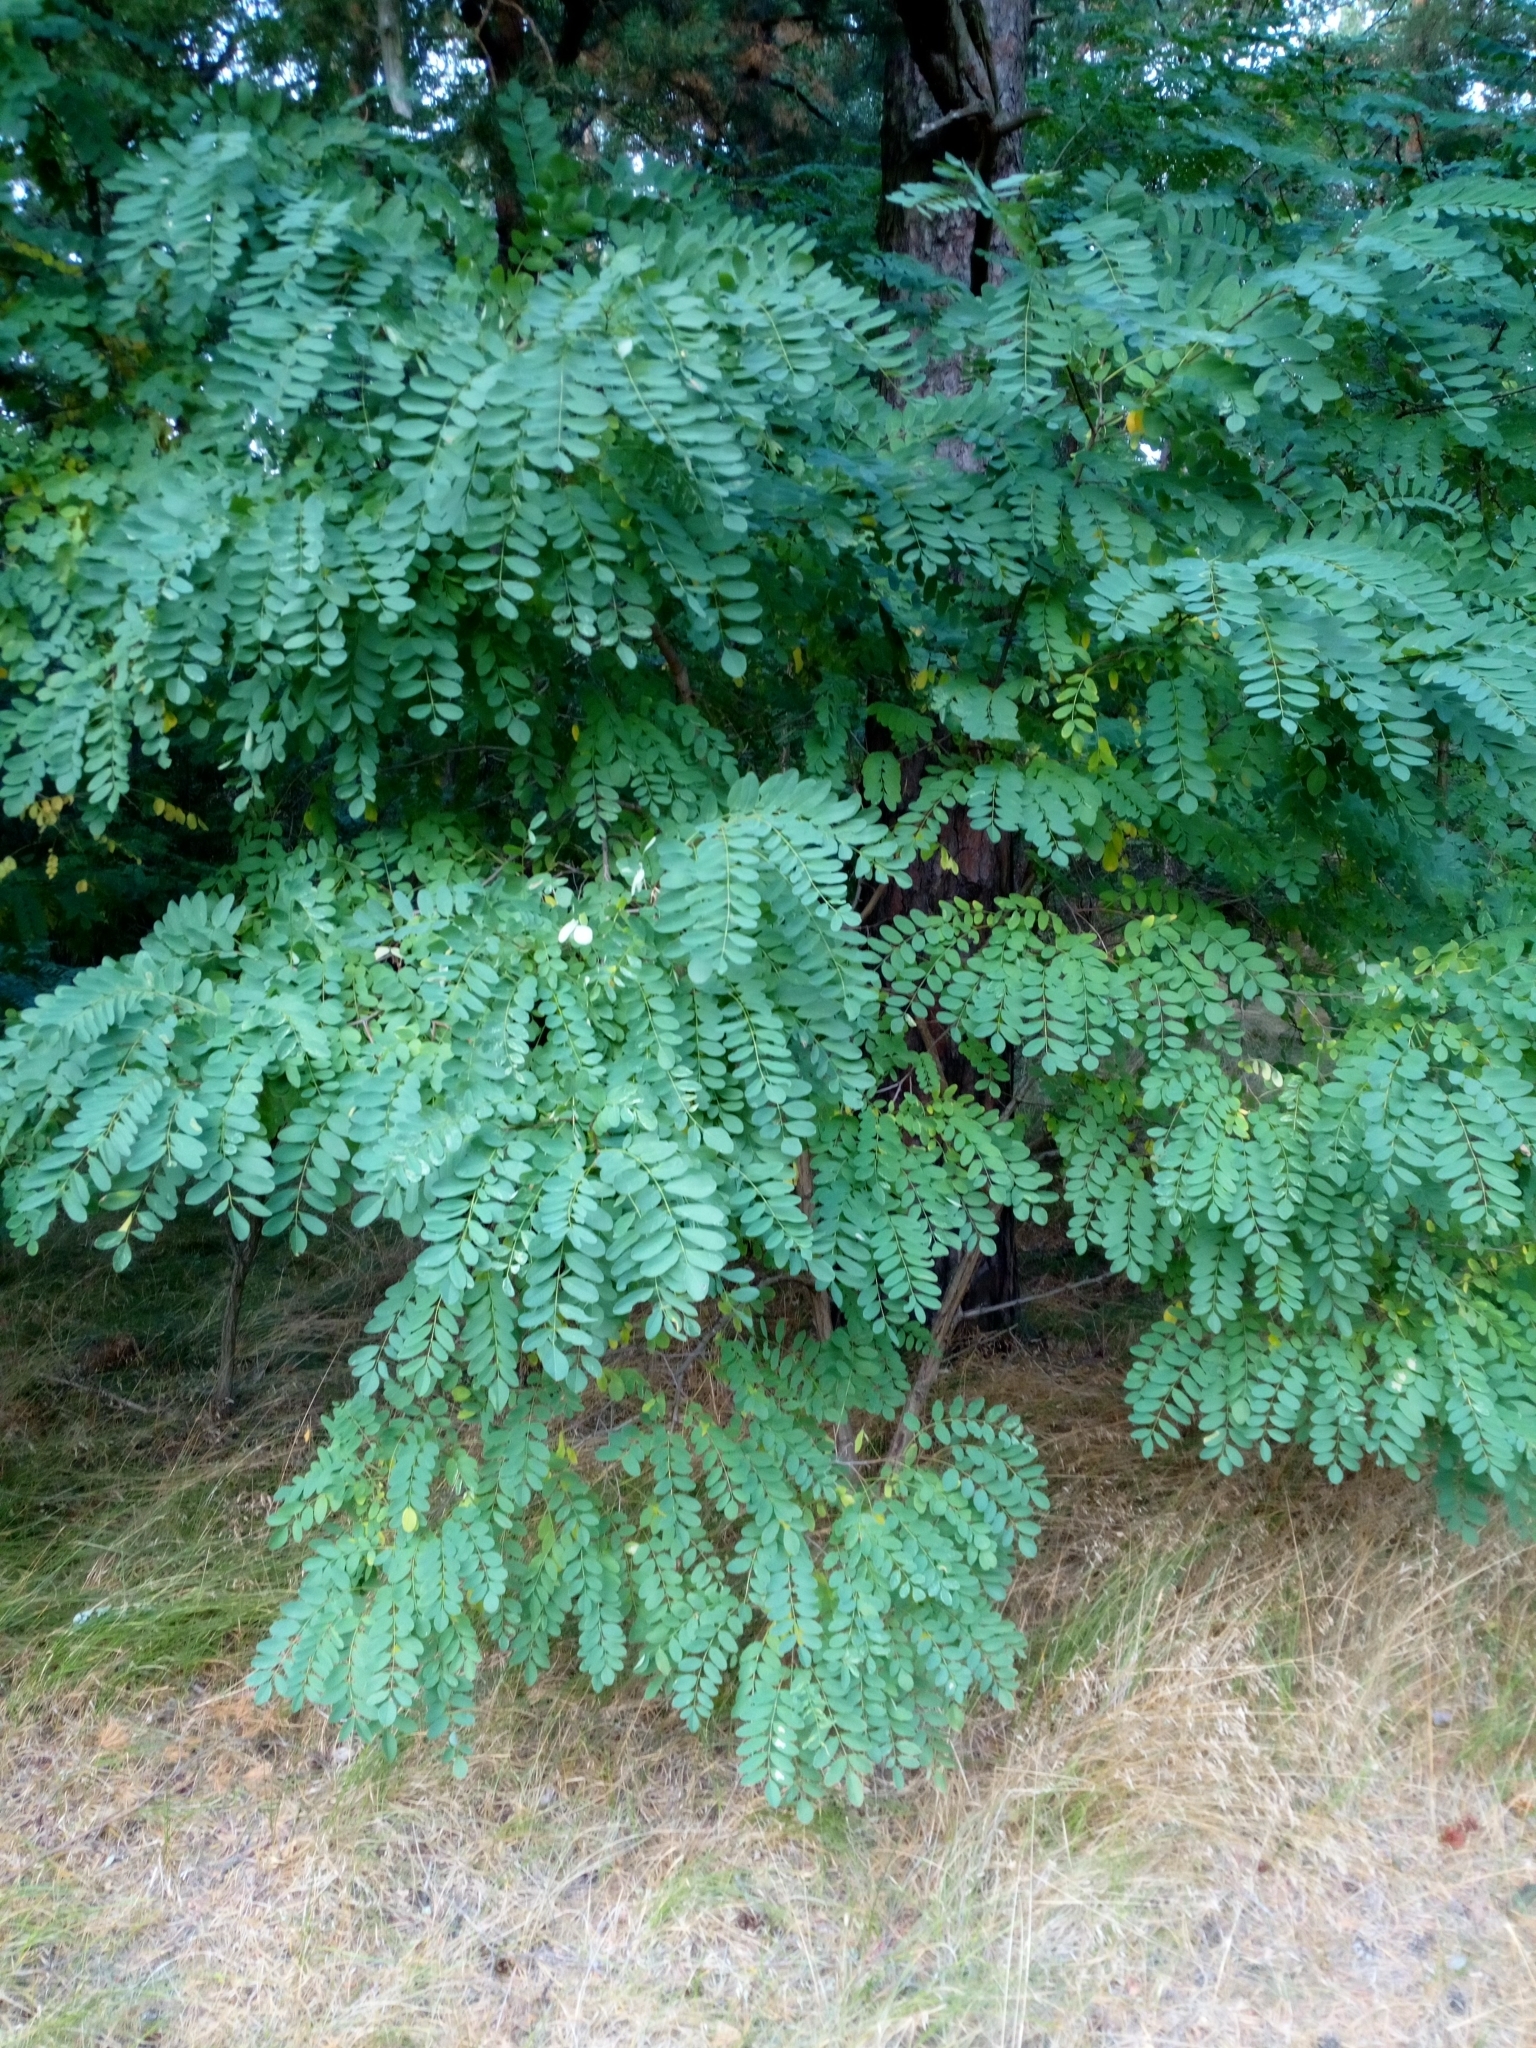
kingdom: Plantae
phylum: Tracheophyta
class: Magnoliopsida
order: Fabales
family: Fabaceae
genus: Robinia
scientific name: Robinia pseudoacacia
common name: Black locust
